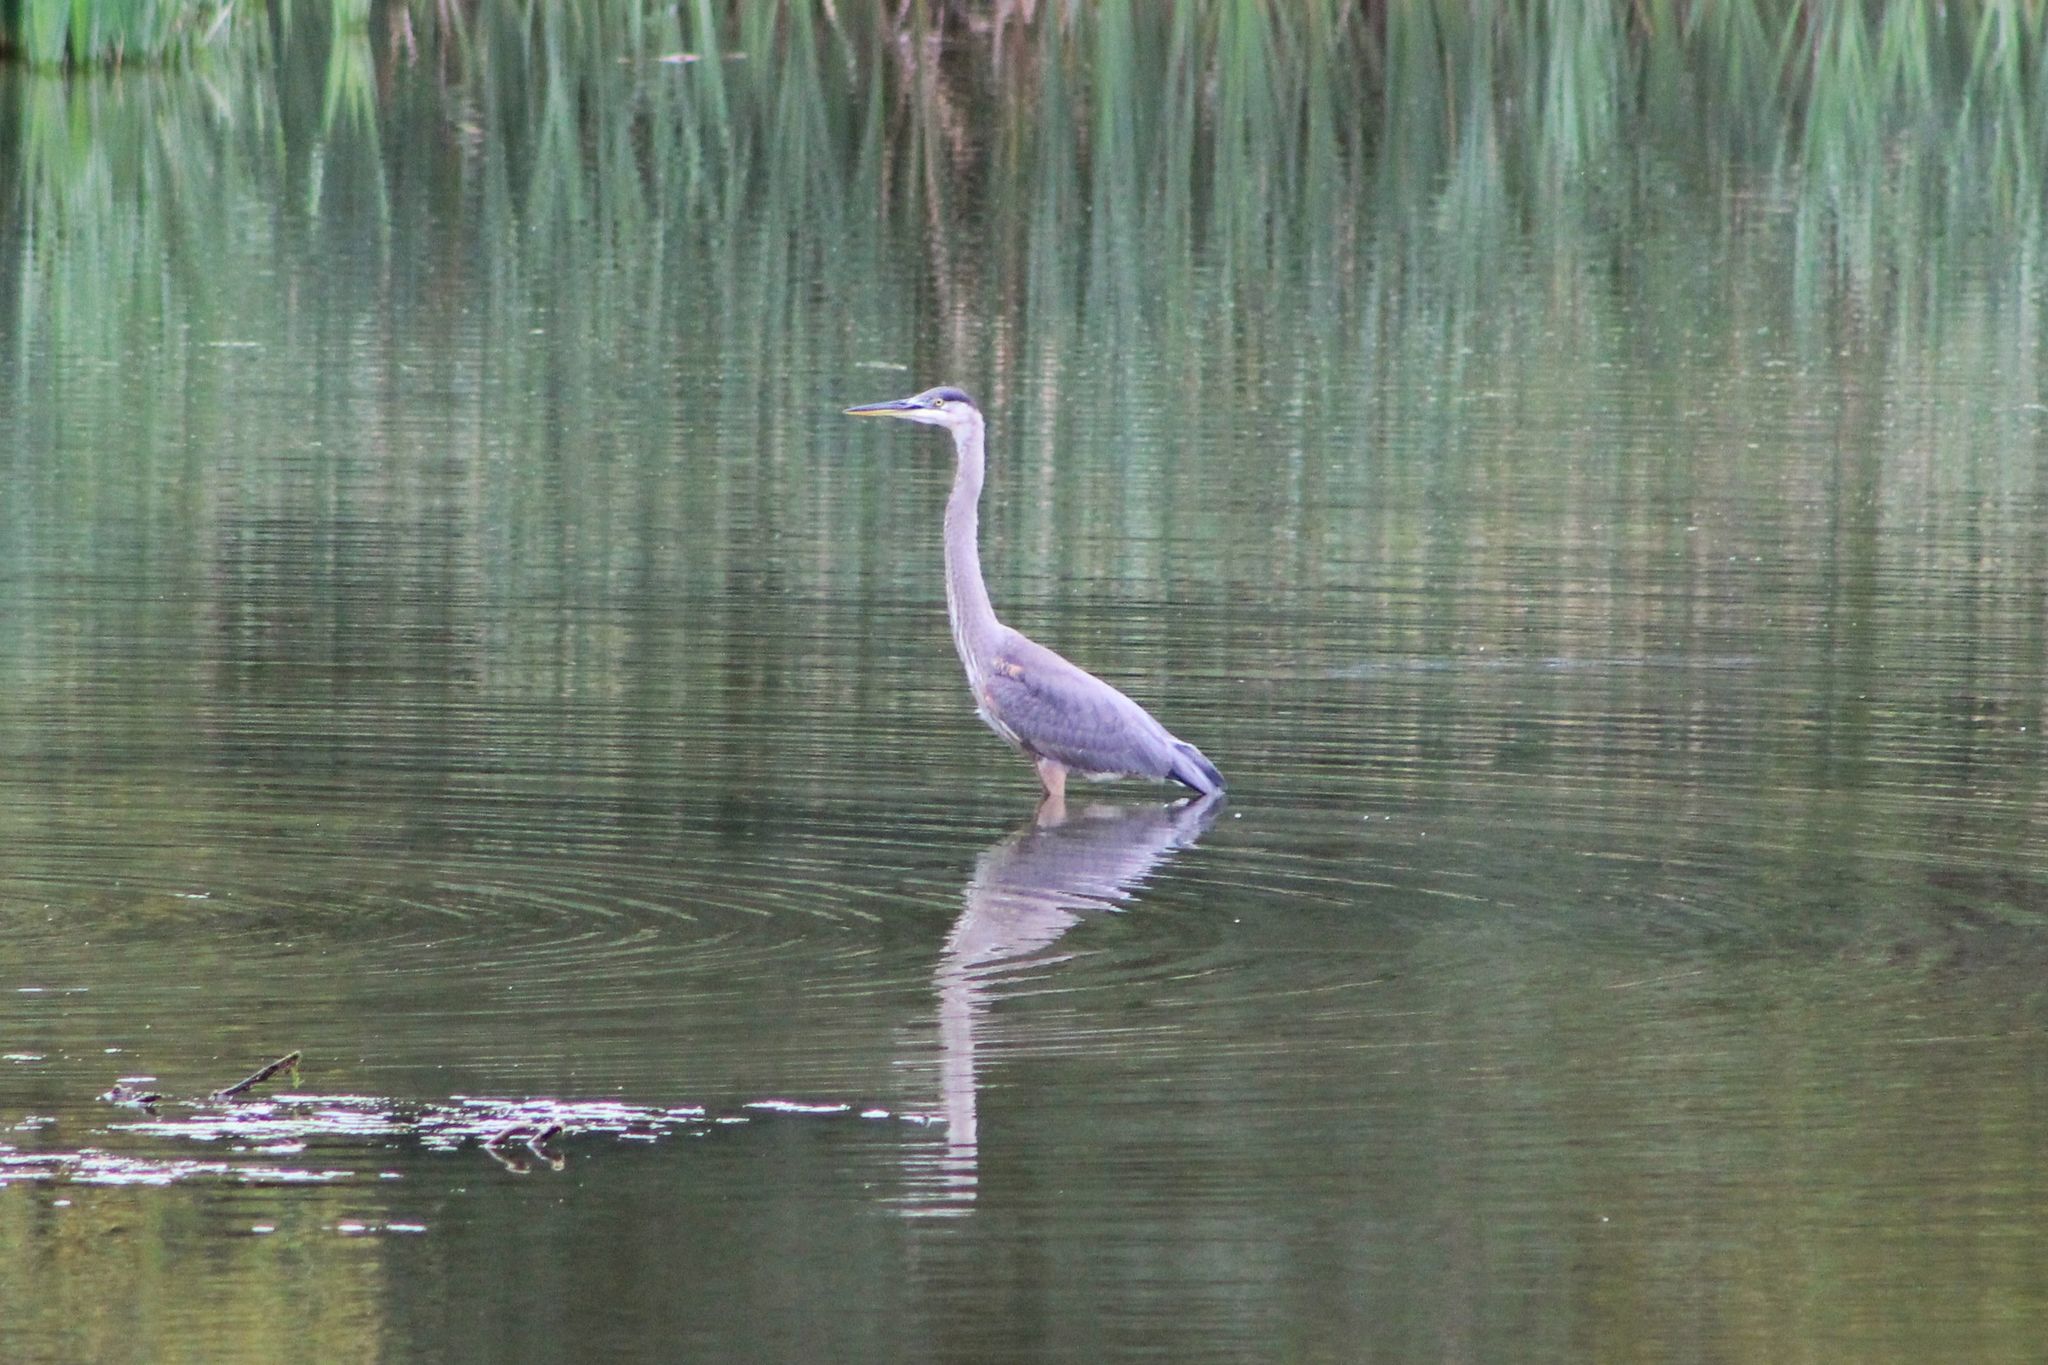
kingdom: Animalia
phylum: Chordata
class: Aves
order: Pelecaniformes
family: Ardeidae
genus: Ardea
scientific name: Ardea herodias
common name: Great blue heron
